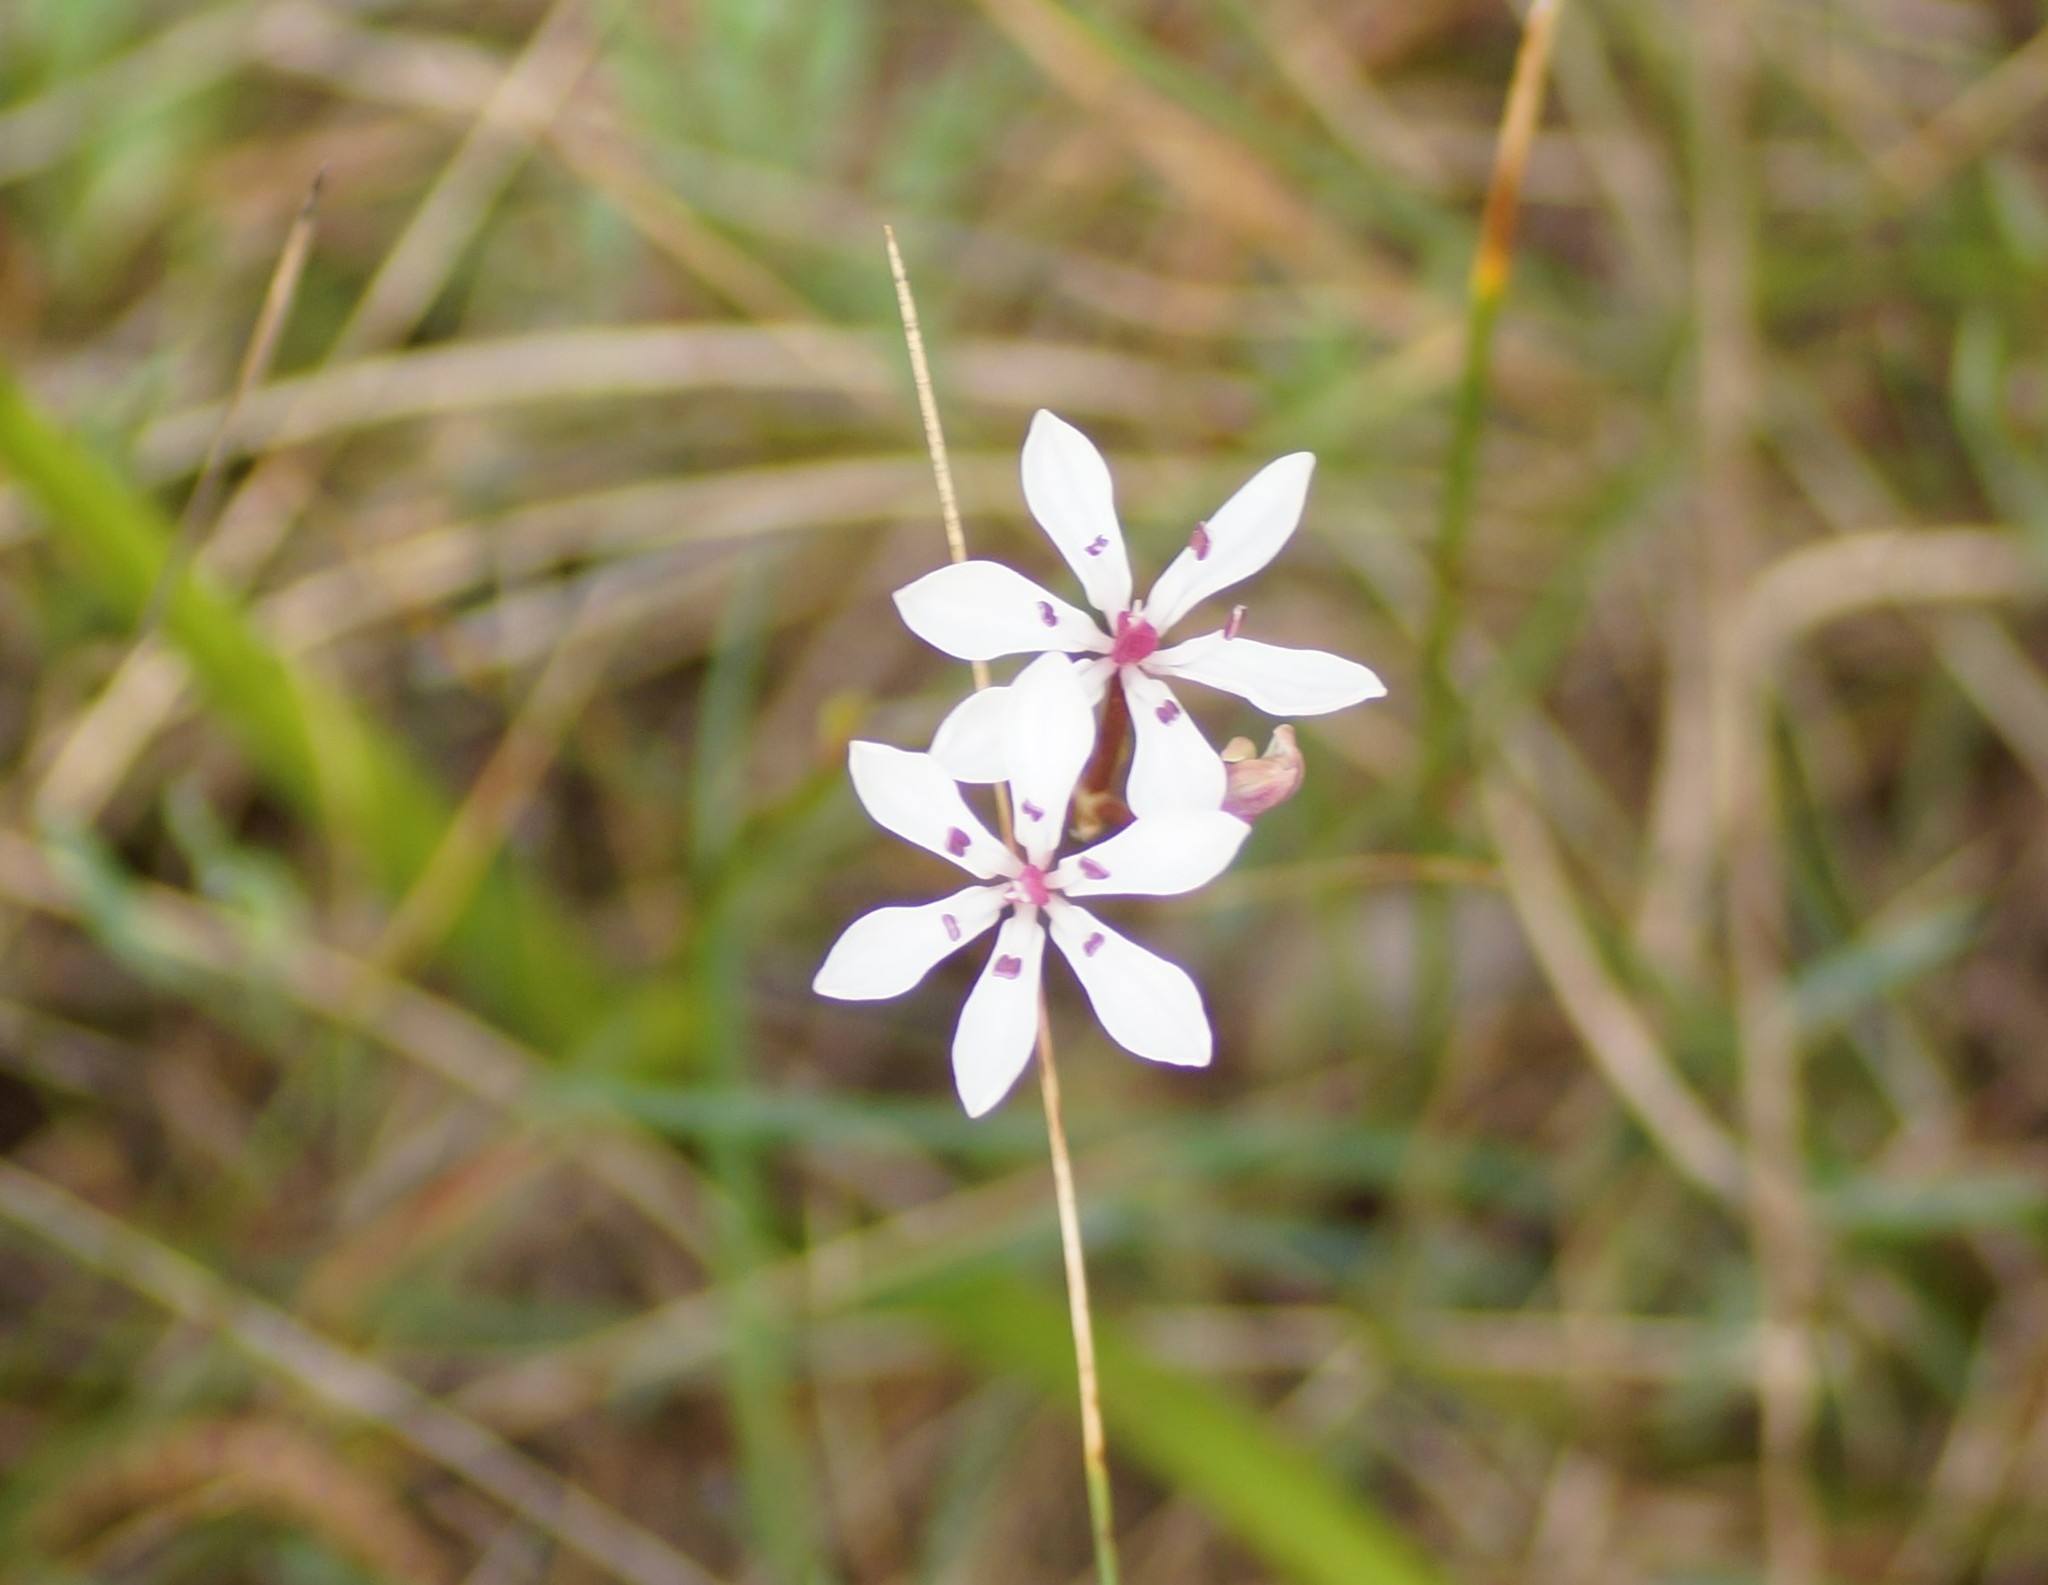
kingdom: Plantae
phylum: Tracheophyta
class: Liliopsida
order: Liliales
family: Colchicaceae
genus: Burchardia
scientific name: Burchardia umbellata
